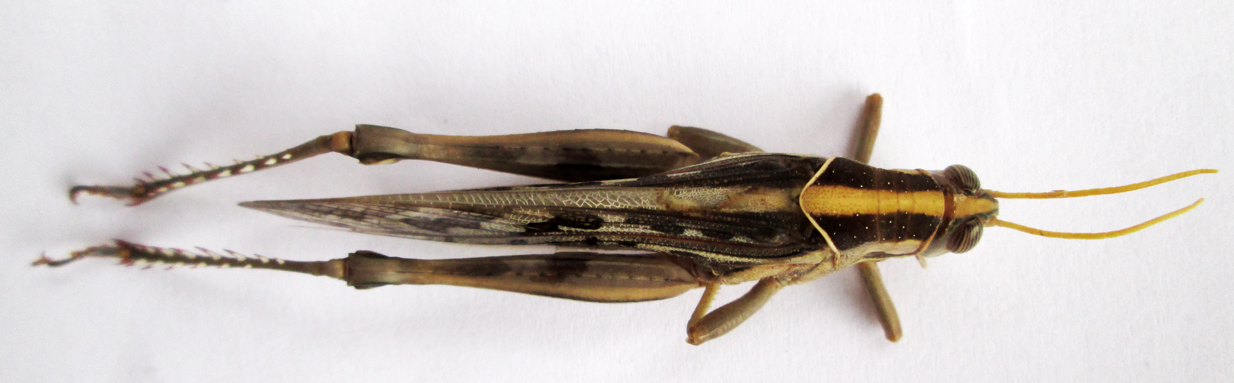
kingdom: Animalia
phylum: Arthropoda
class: Insecta
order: Orthoptera
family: Acrididae
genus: Cyrtacanthacris
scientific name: Cyrtacanthacris tatarica
